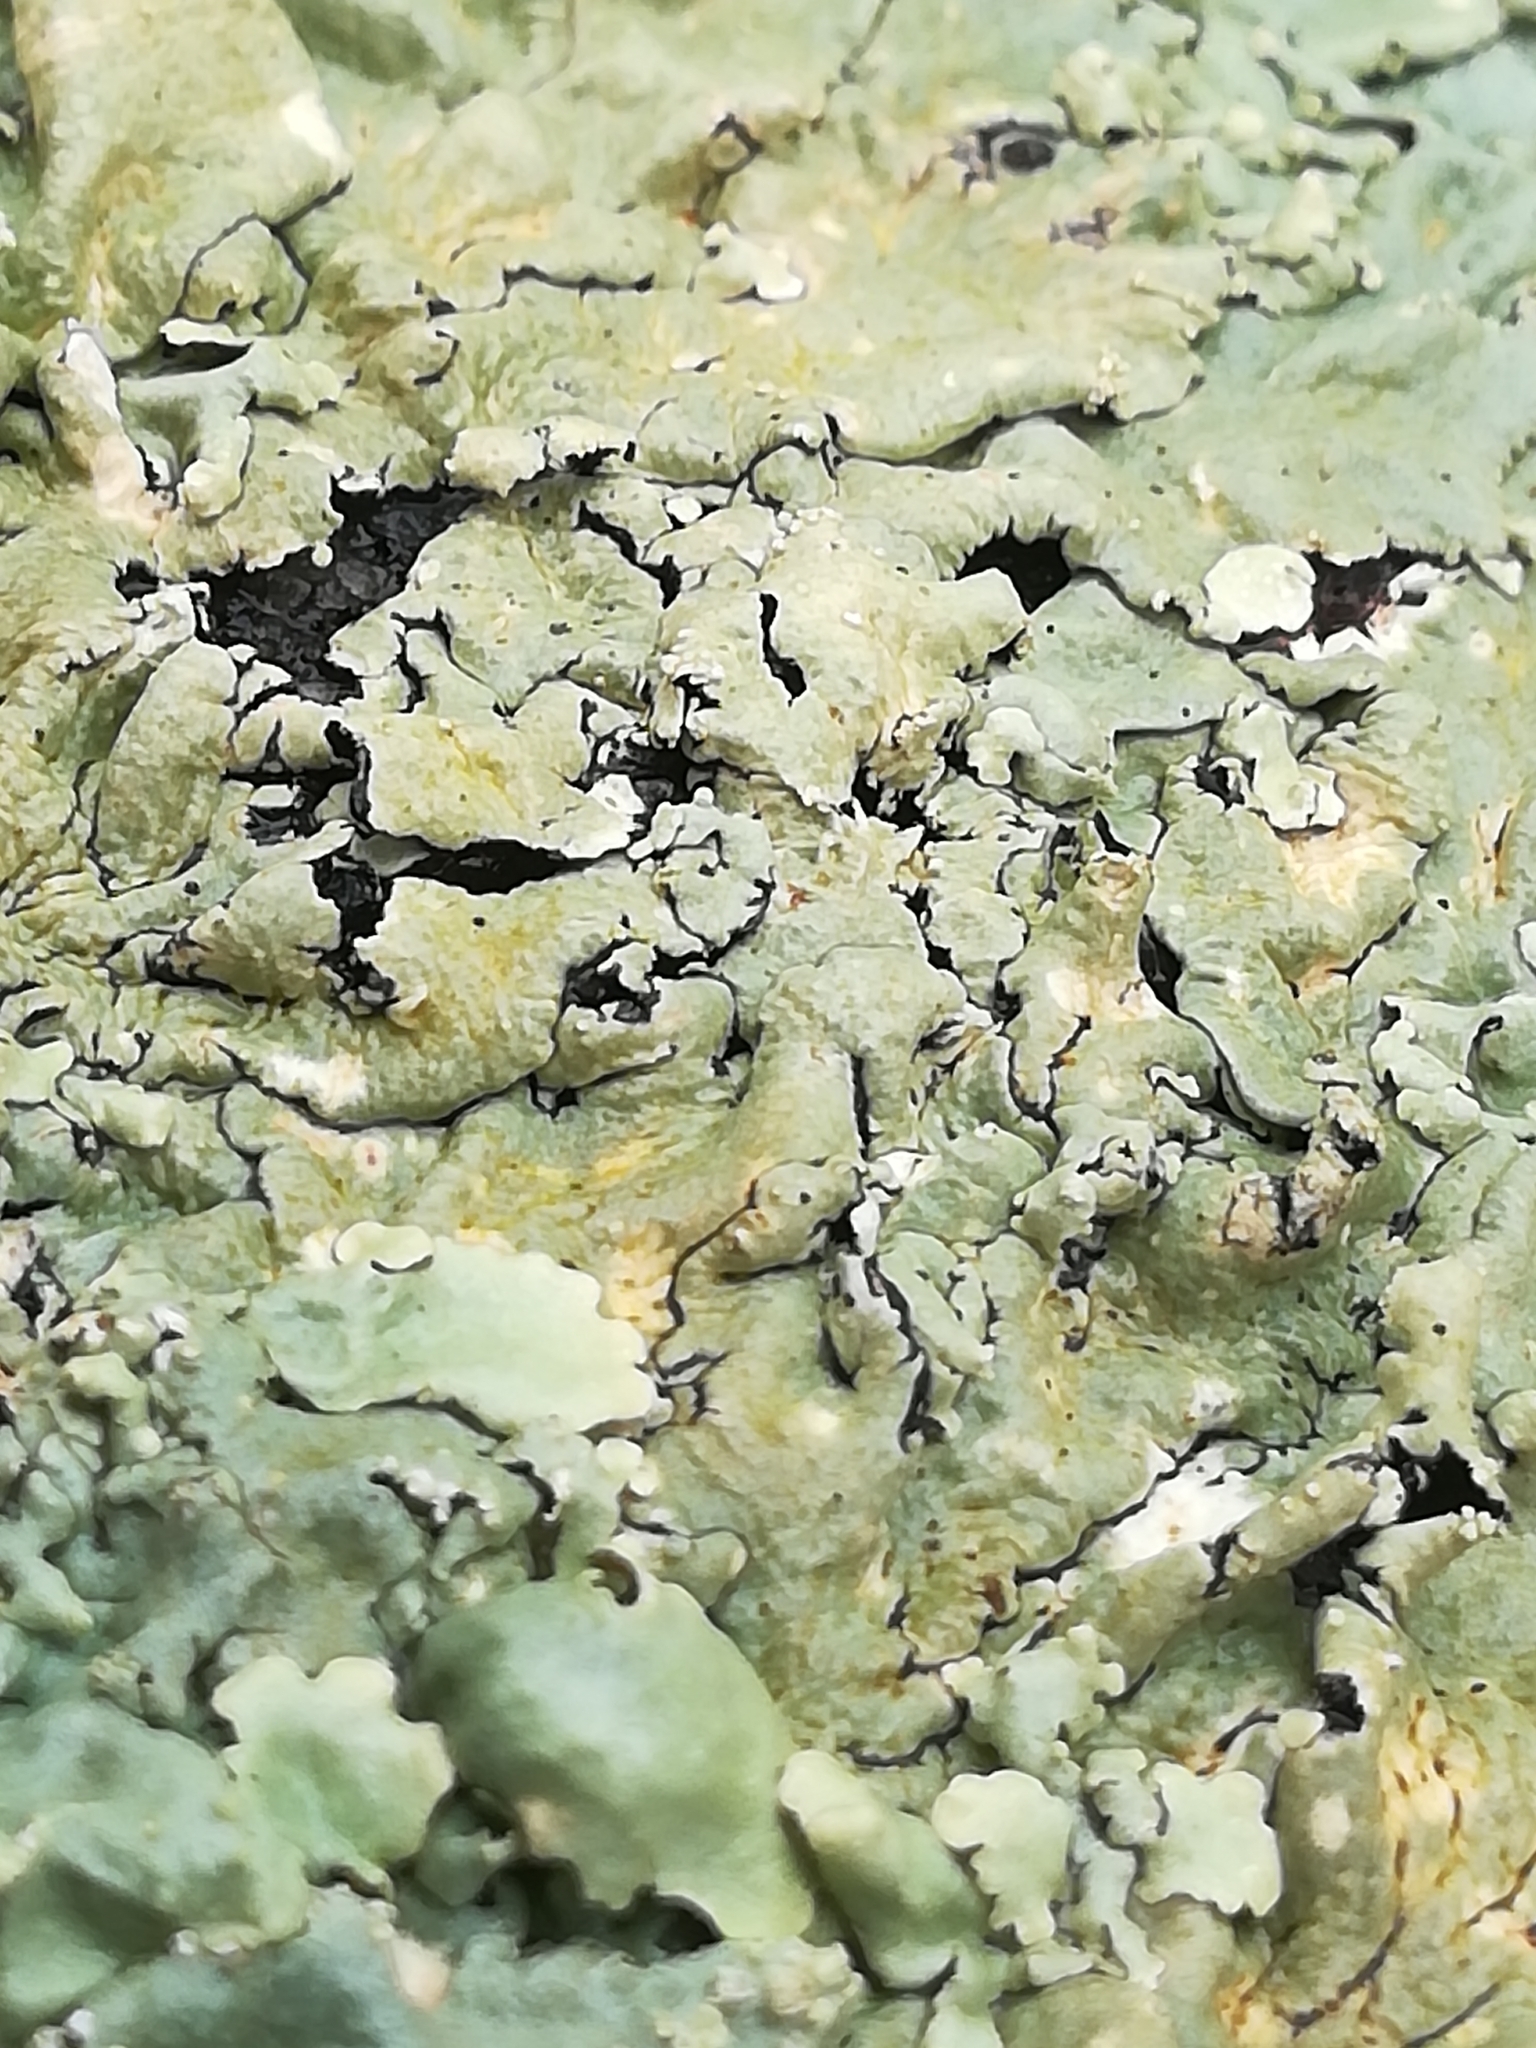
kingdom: Fungi
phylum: Ascomycota
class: Lecanoromycetes
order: Lecanorales
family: Parmeliaceae
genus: Flavoparmelia
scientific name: Flavoparmelia caperata
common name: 40-mile per hour lichen
